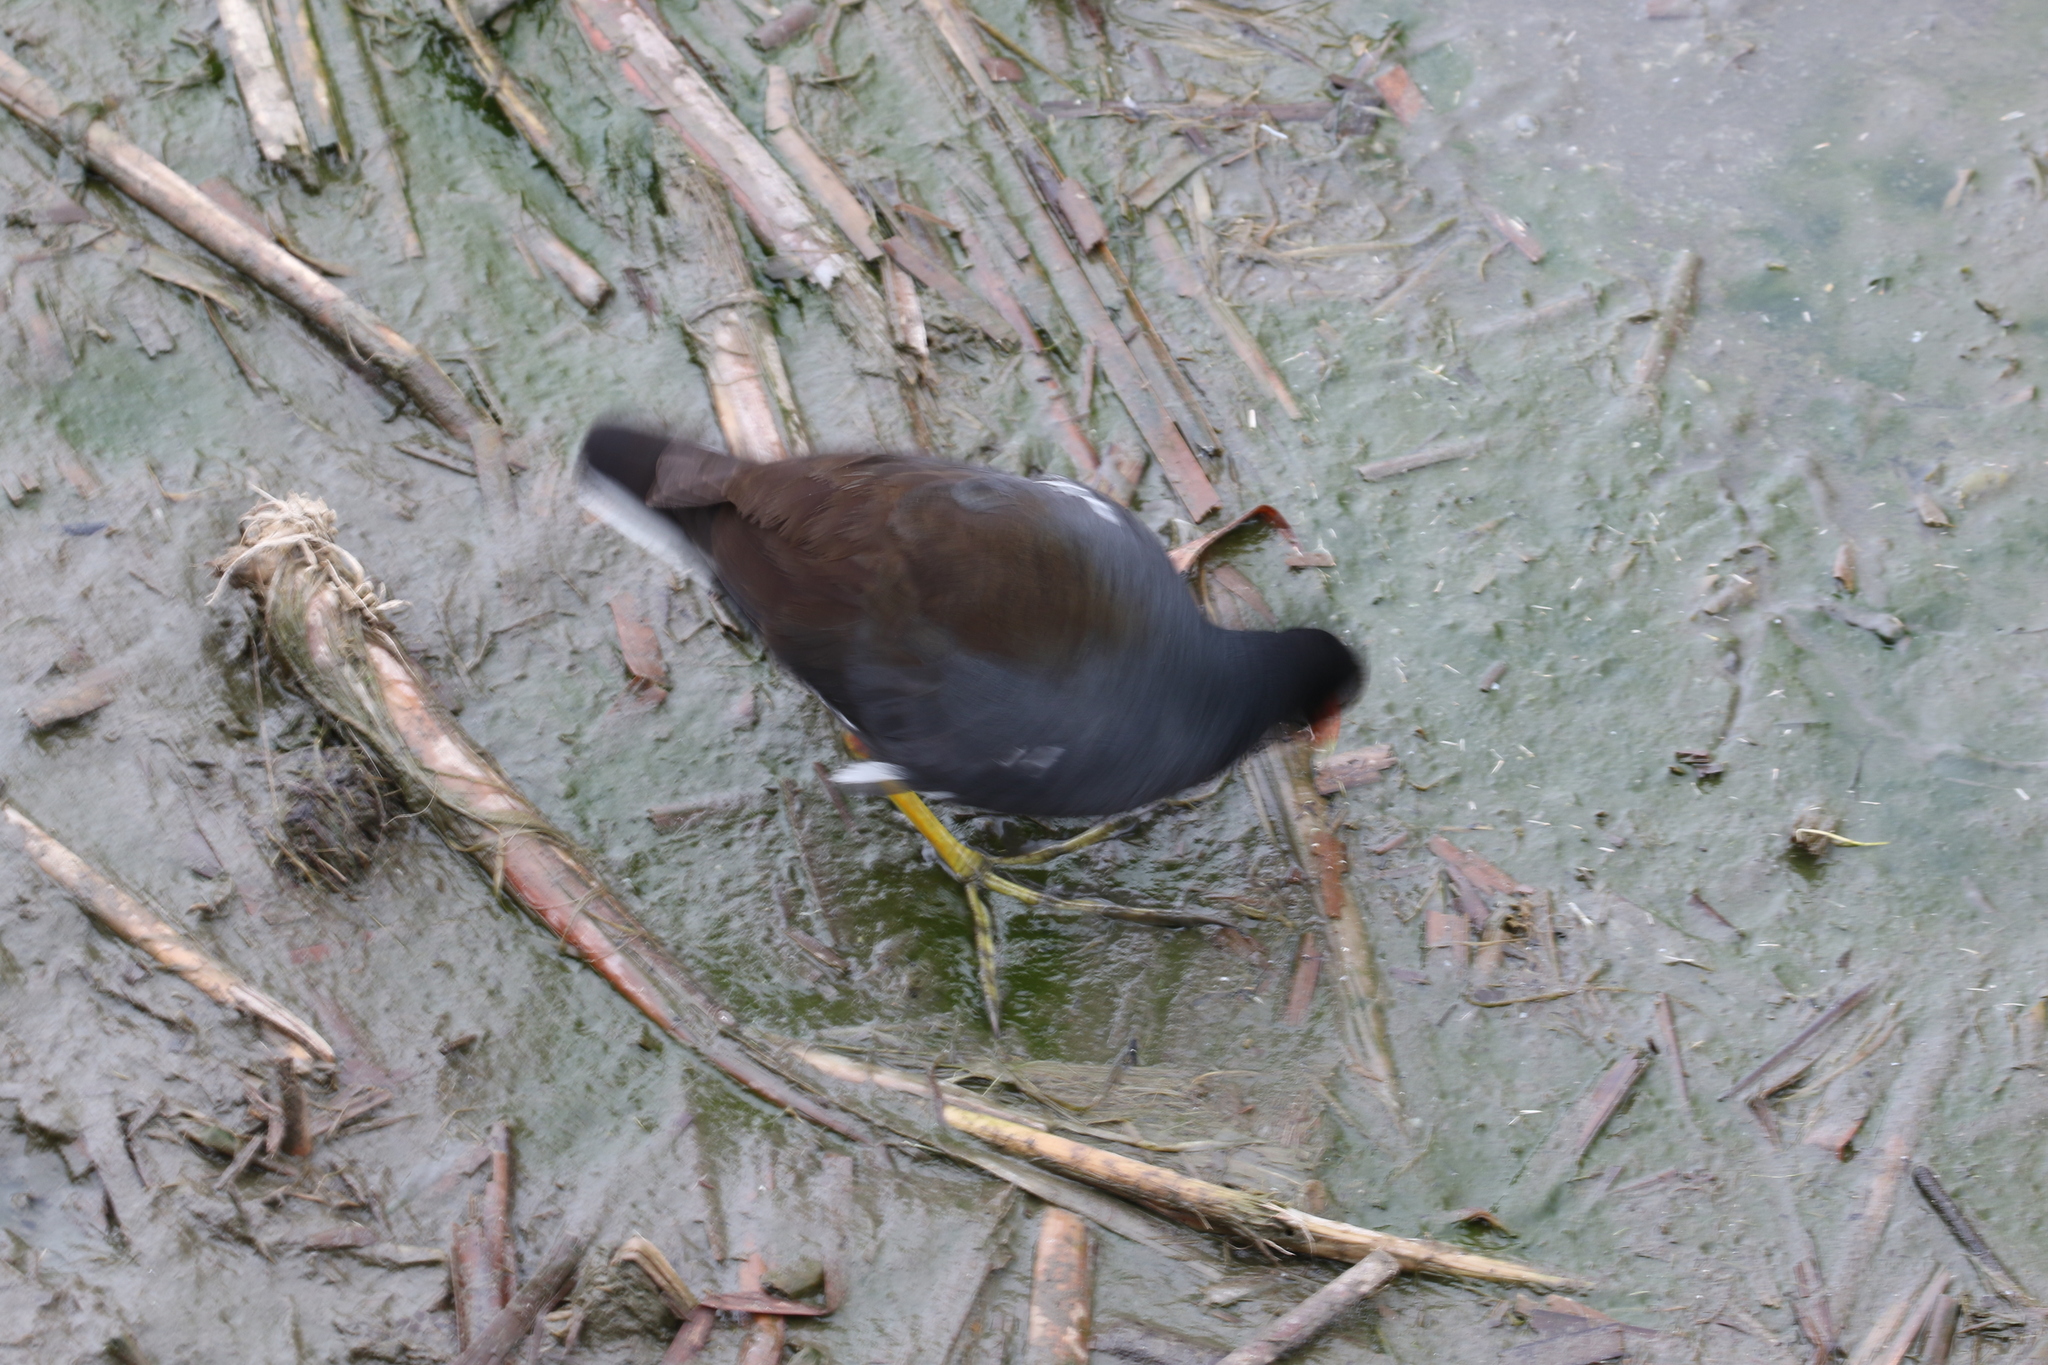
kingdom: Animalia
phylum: Chordata
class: Aves
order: Gruiformes
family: Rallidae
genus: Gallinula
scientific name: Gallinula chloropus
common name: Common moorhen
